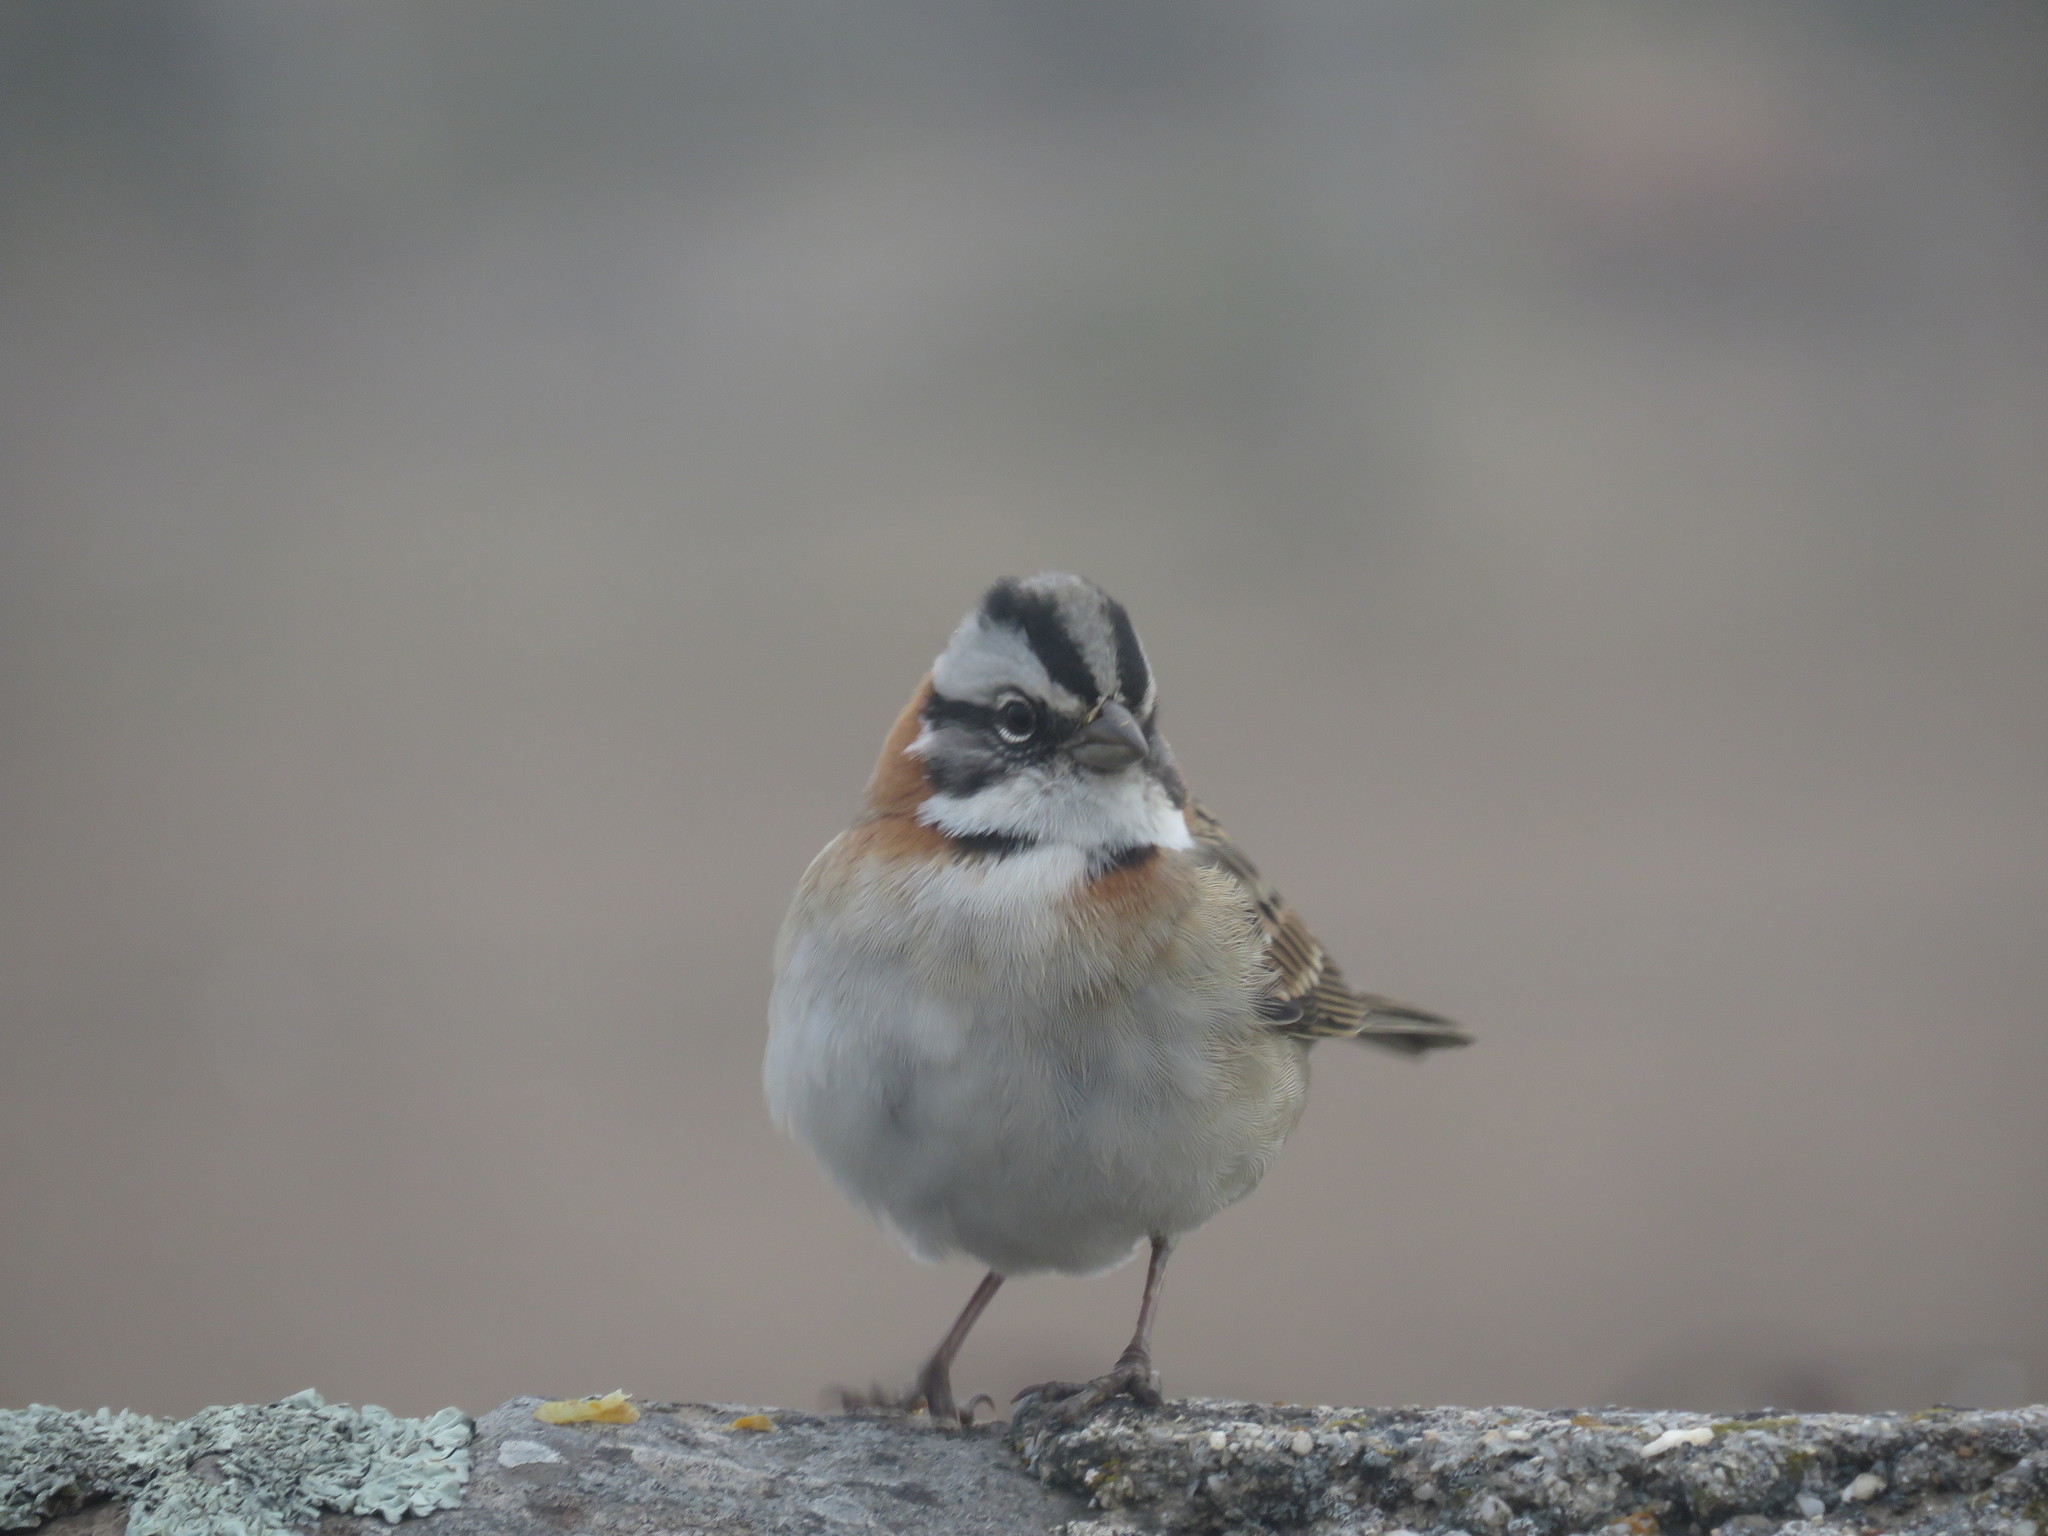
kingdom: Animalia
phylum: Chordata
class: Aves
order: Passeriformes
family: Passerellidae
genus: Zonotrichia
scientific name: Zonotrichia capensis
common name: Rufous-collared sparrow
